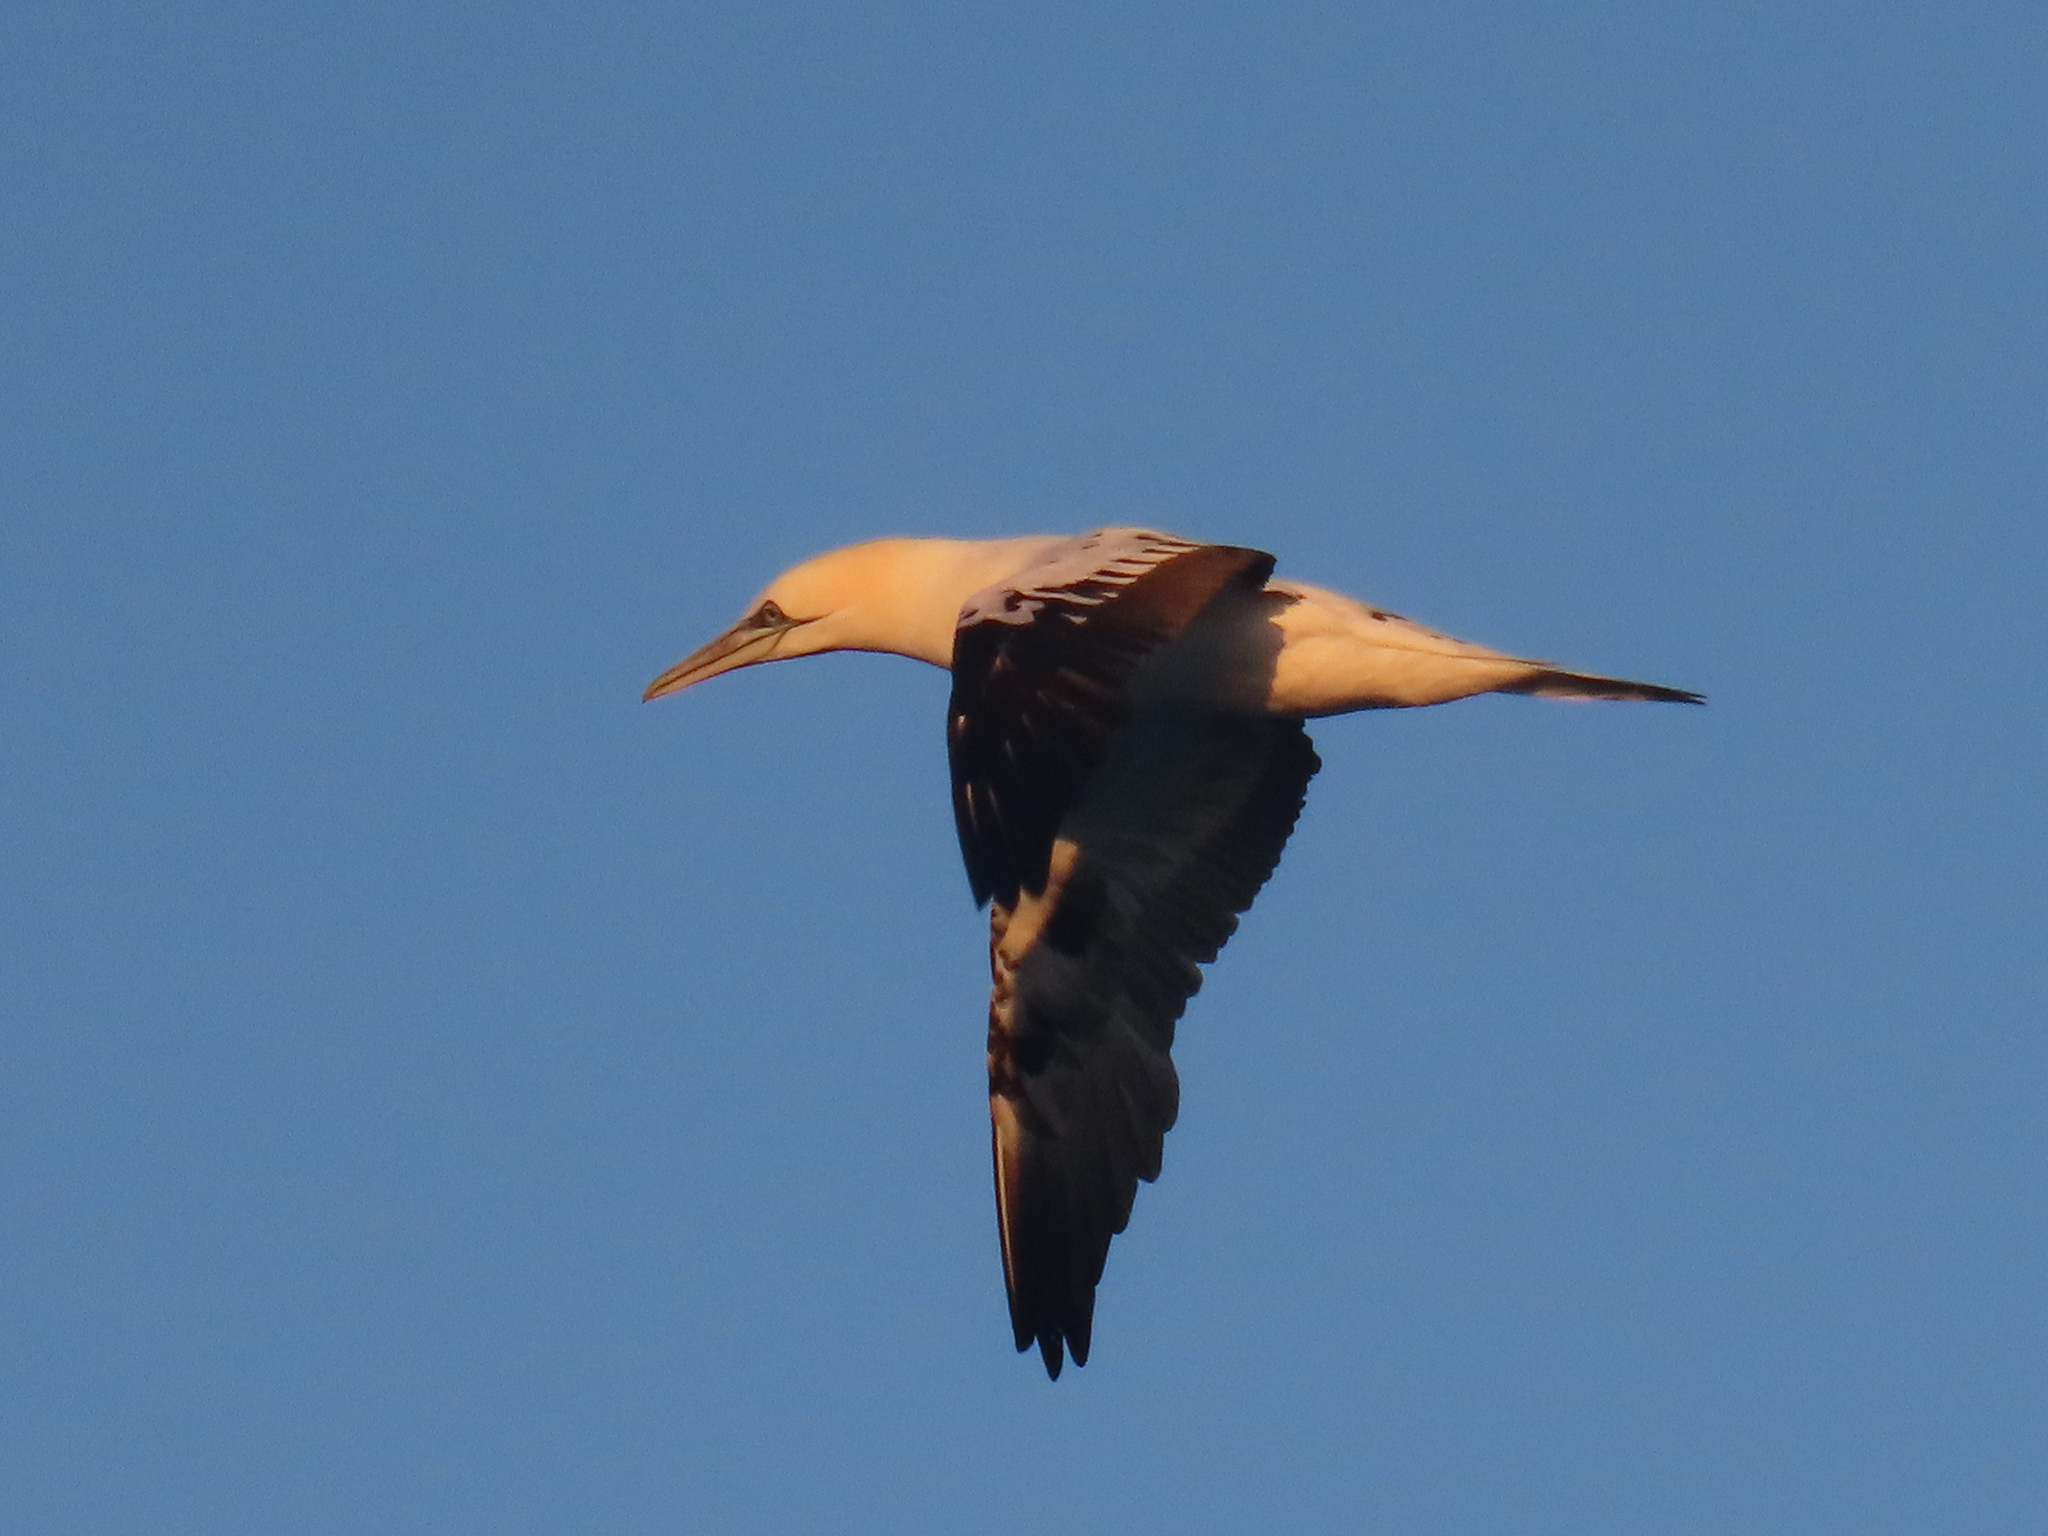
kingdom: Animalia
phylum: Chordata
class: Aves
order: Suliformes
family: Sulidae
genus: Morus
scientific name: Morus bassanus
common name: Northern gannet
